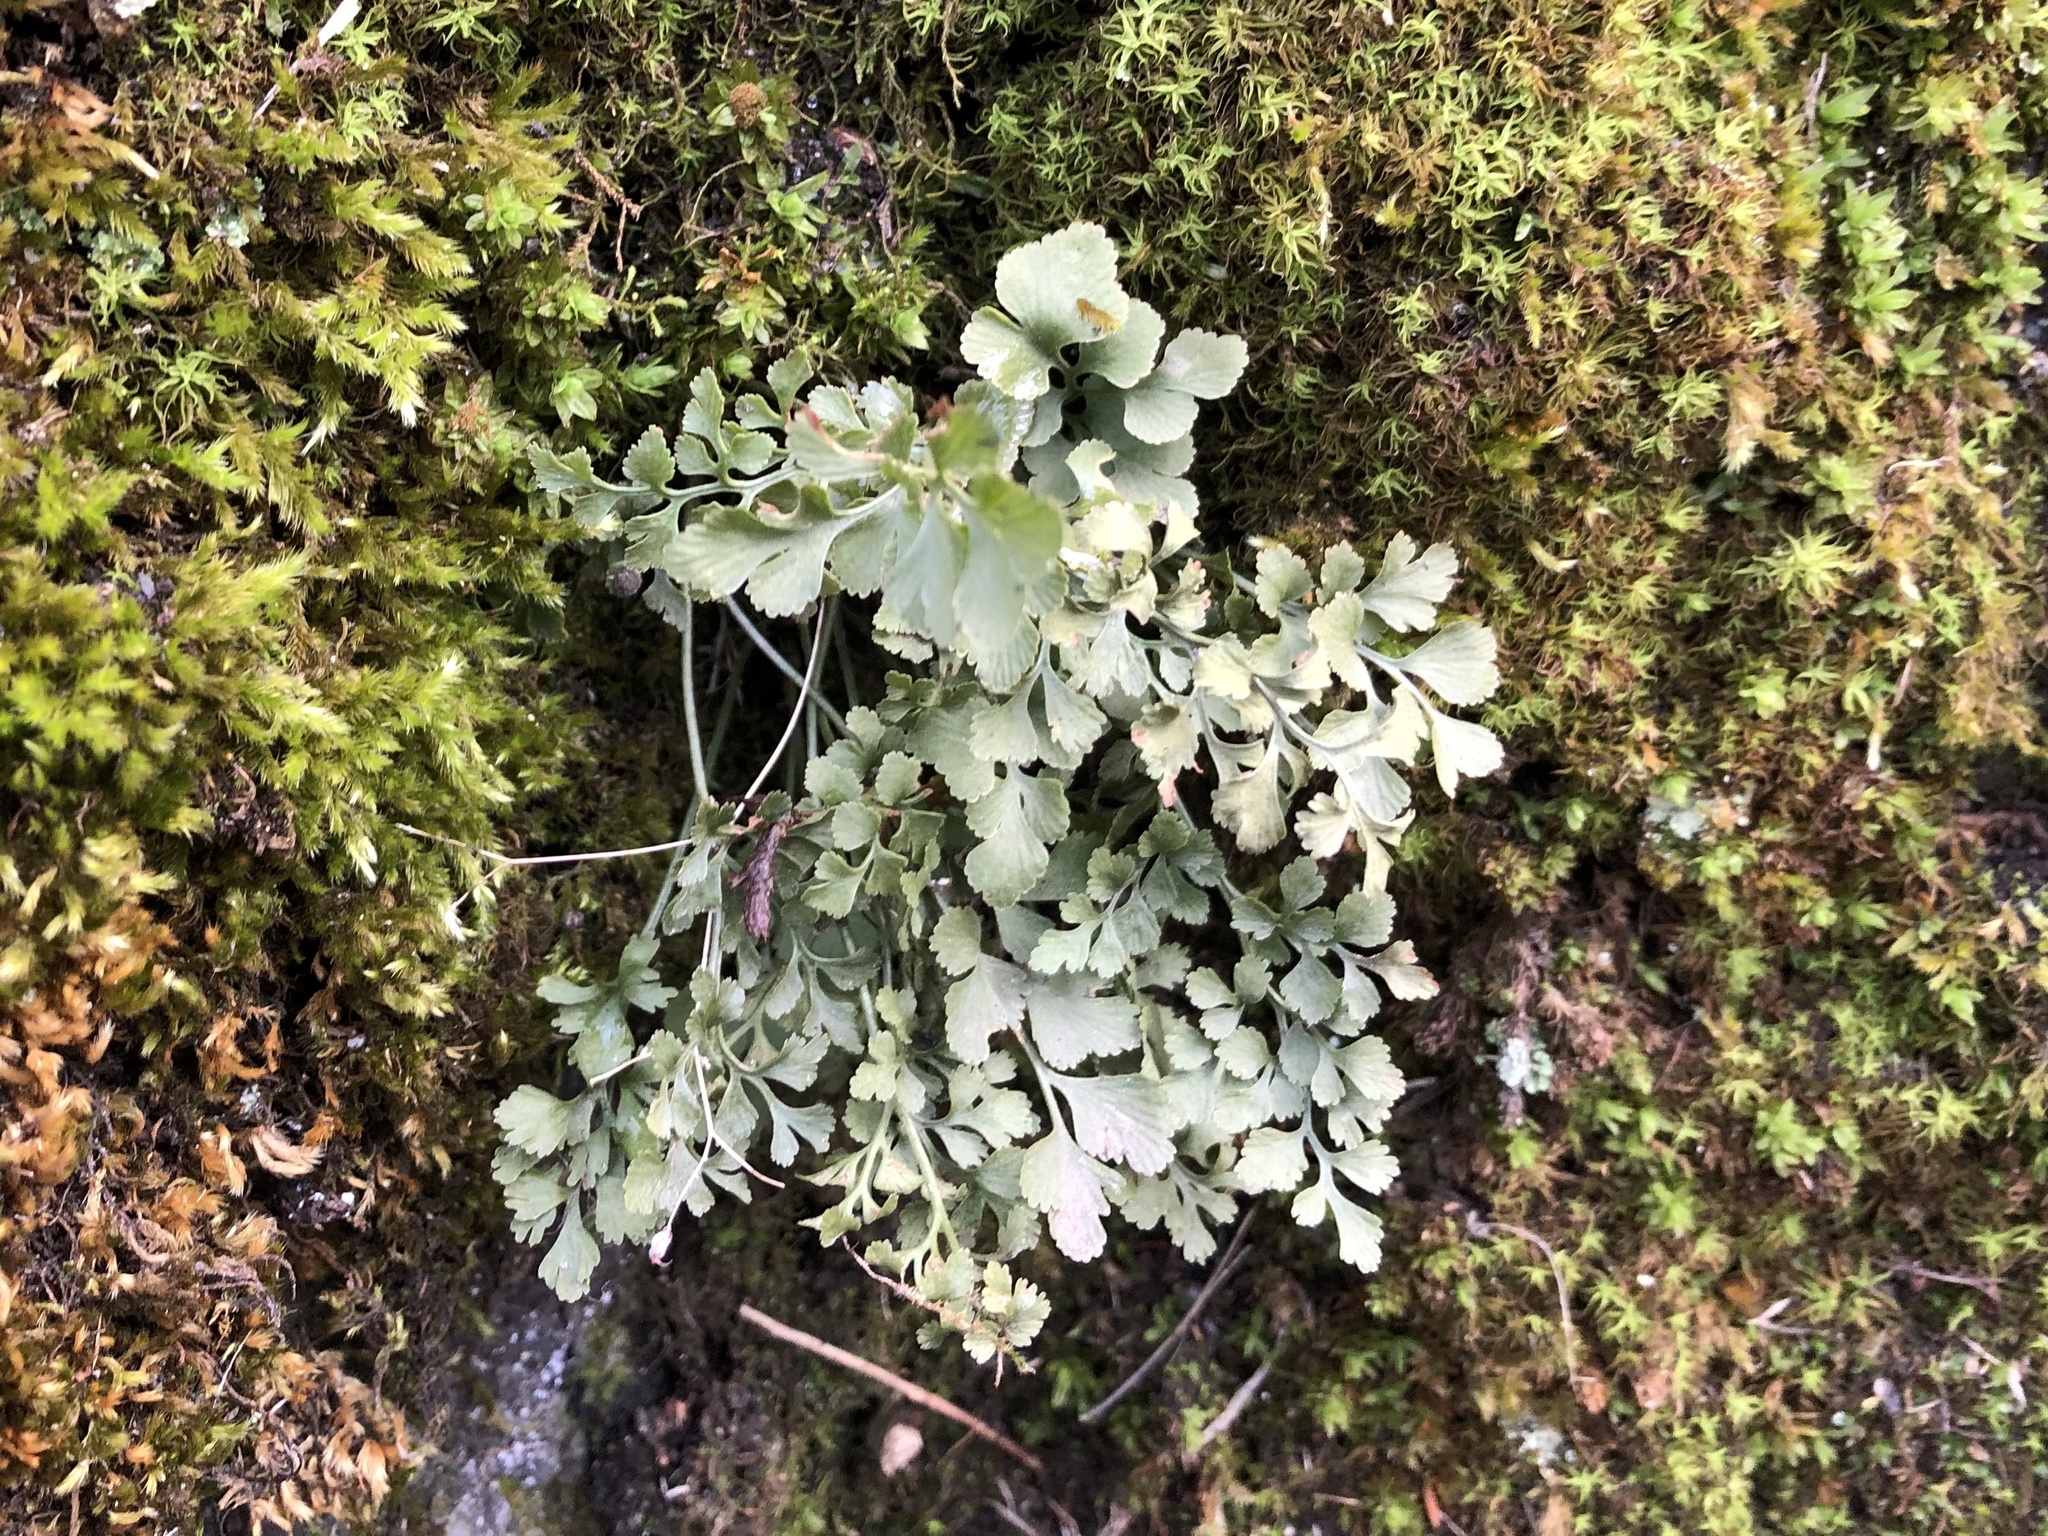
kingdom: Plantae
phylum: Tracheophyta
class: Polypodiopsida
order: Polypodiales
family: Aspleniaceae
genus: Asplenium
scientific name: Asplenium ruta-muraria
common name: Wall-rue
